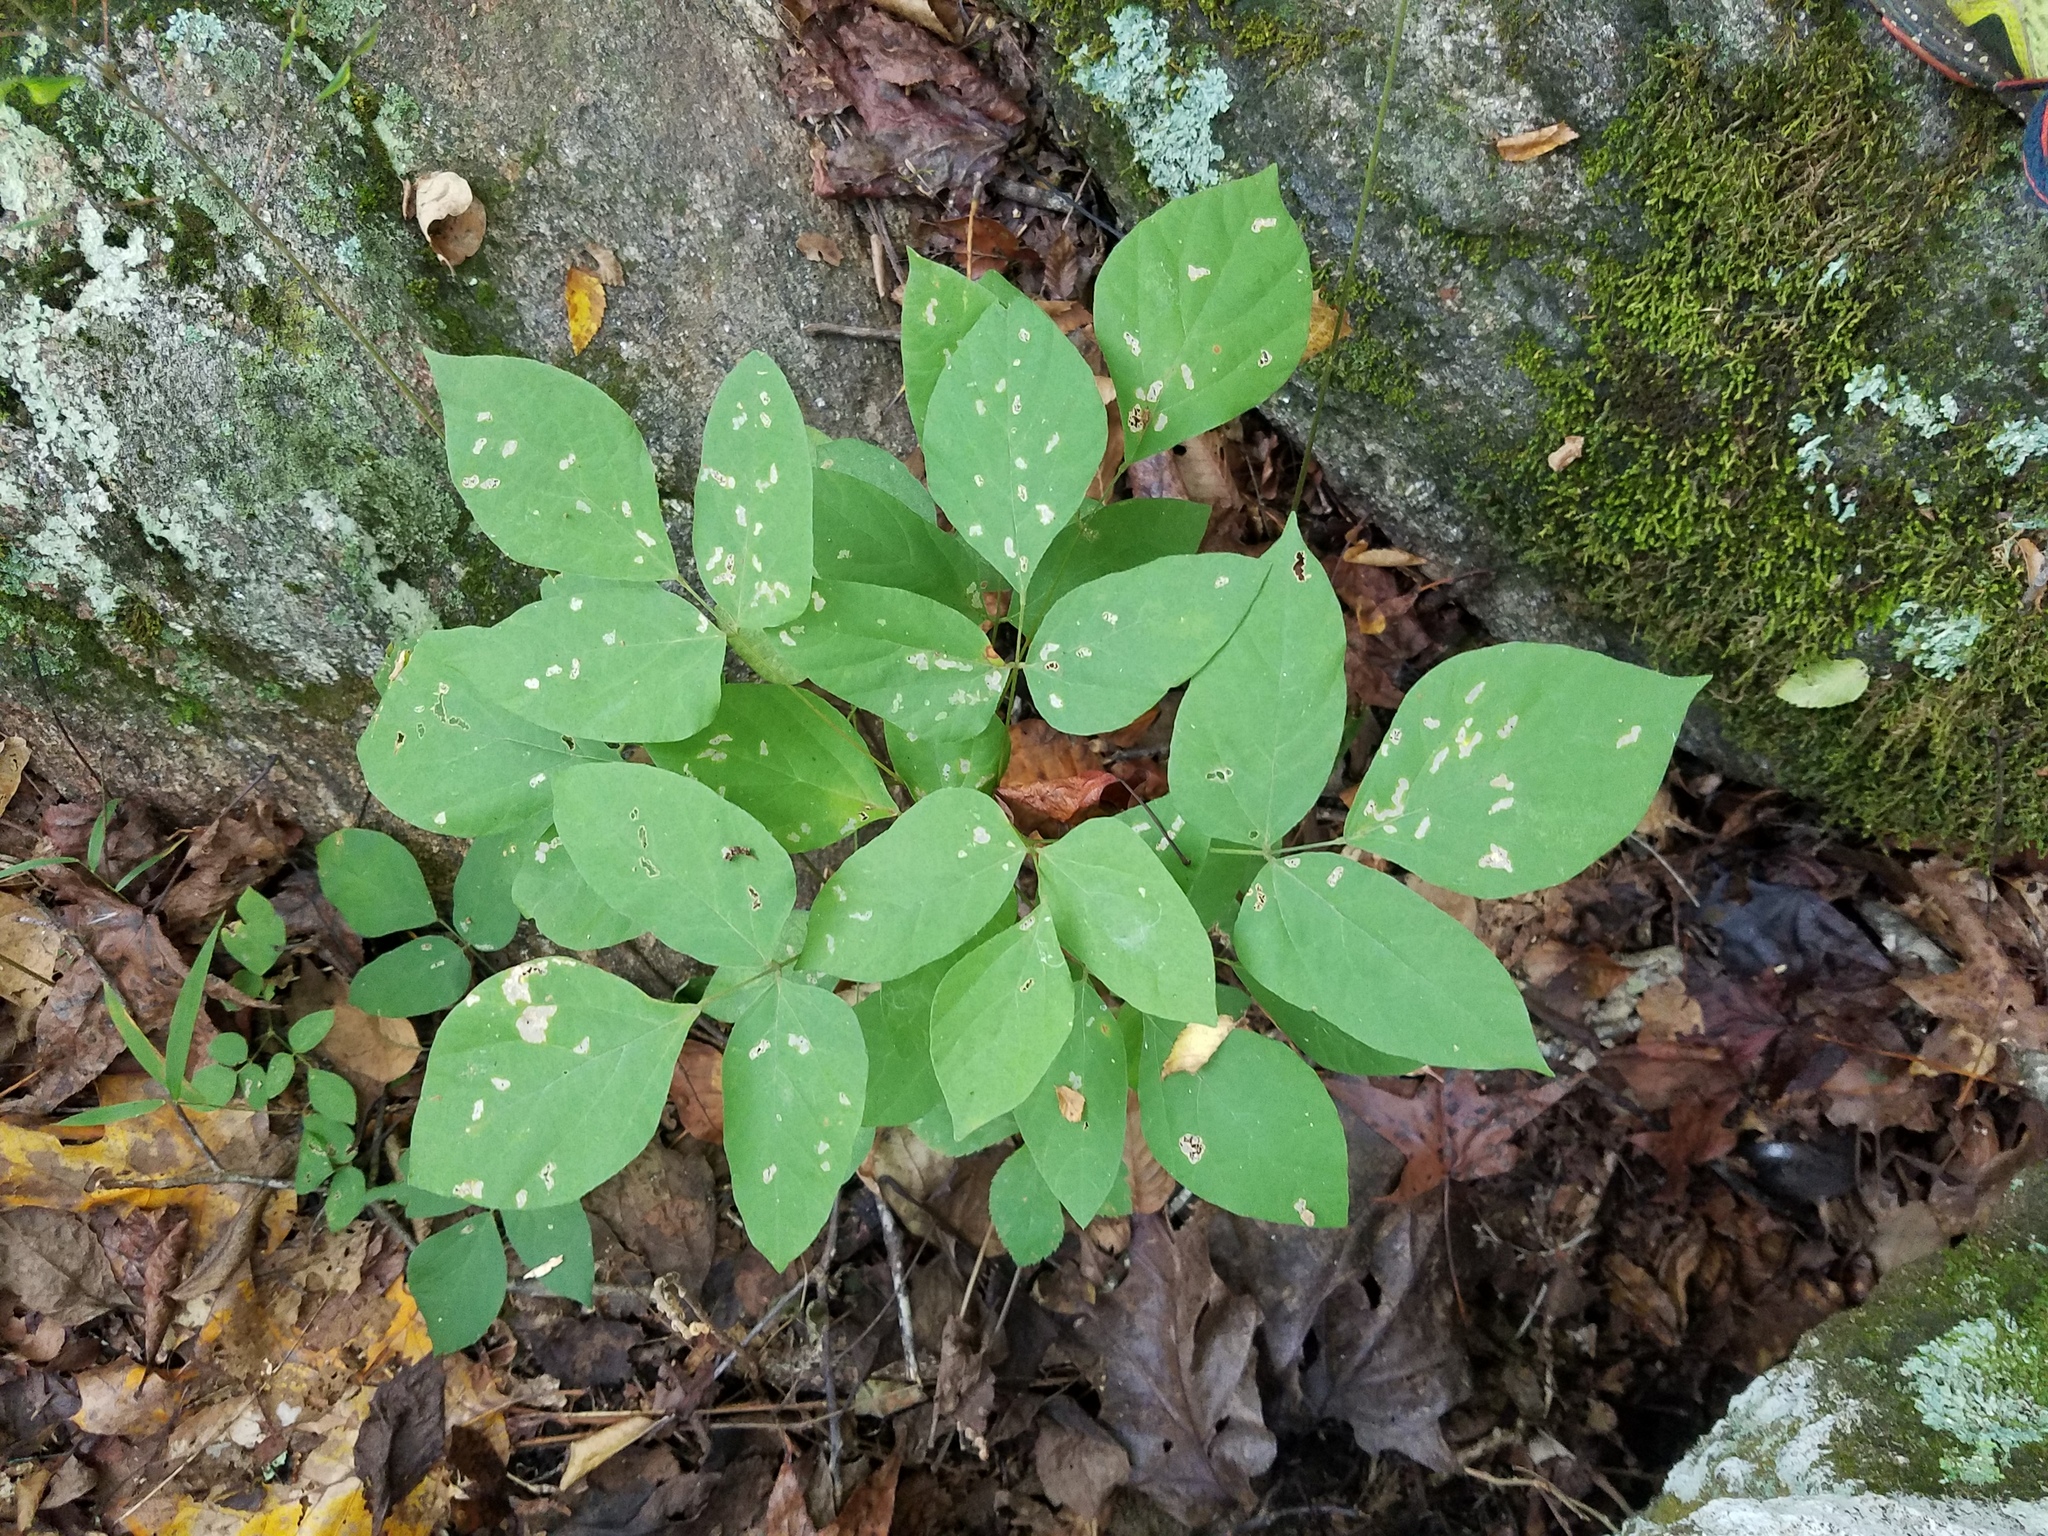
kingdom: Plantae
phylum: Tracheophyta
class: Magnoliopsida
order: Fabales
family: Fabaceae
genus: Hylodesmum
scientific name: Hylodesmum nudiflorum
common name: Bare-stemmed tick-trefoil
